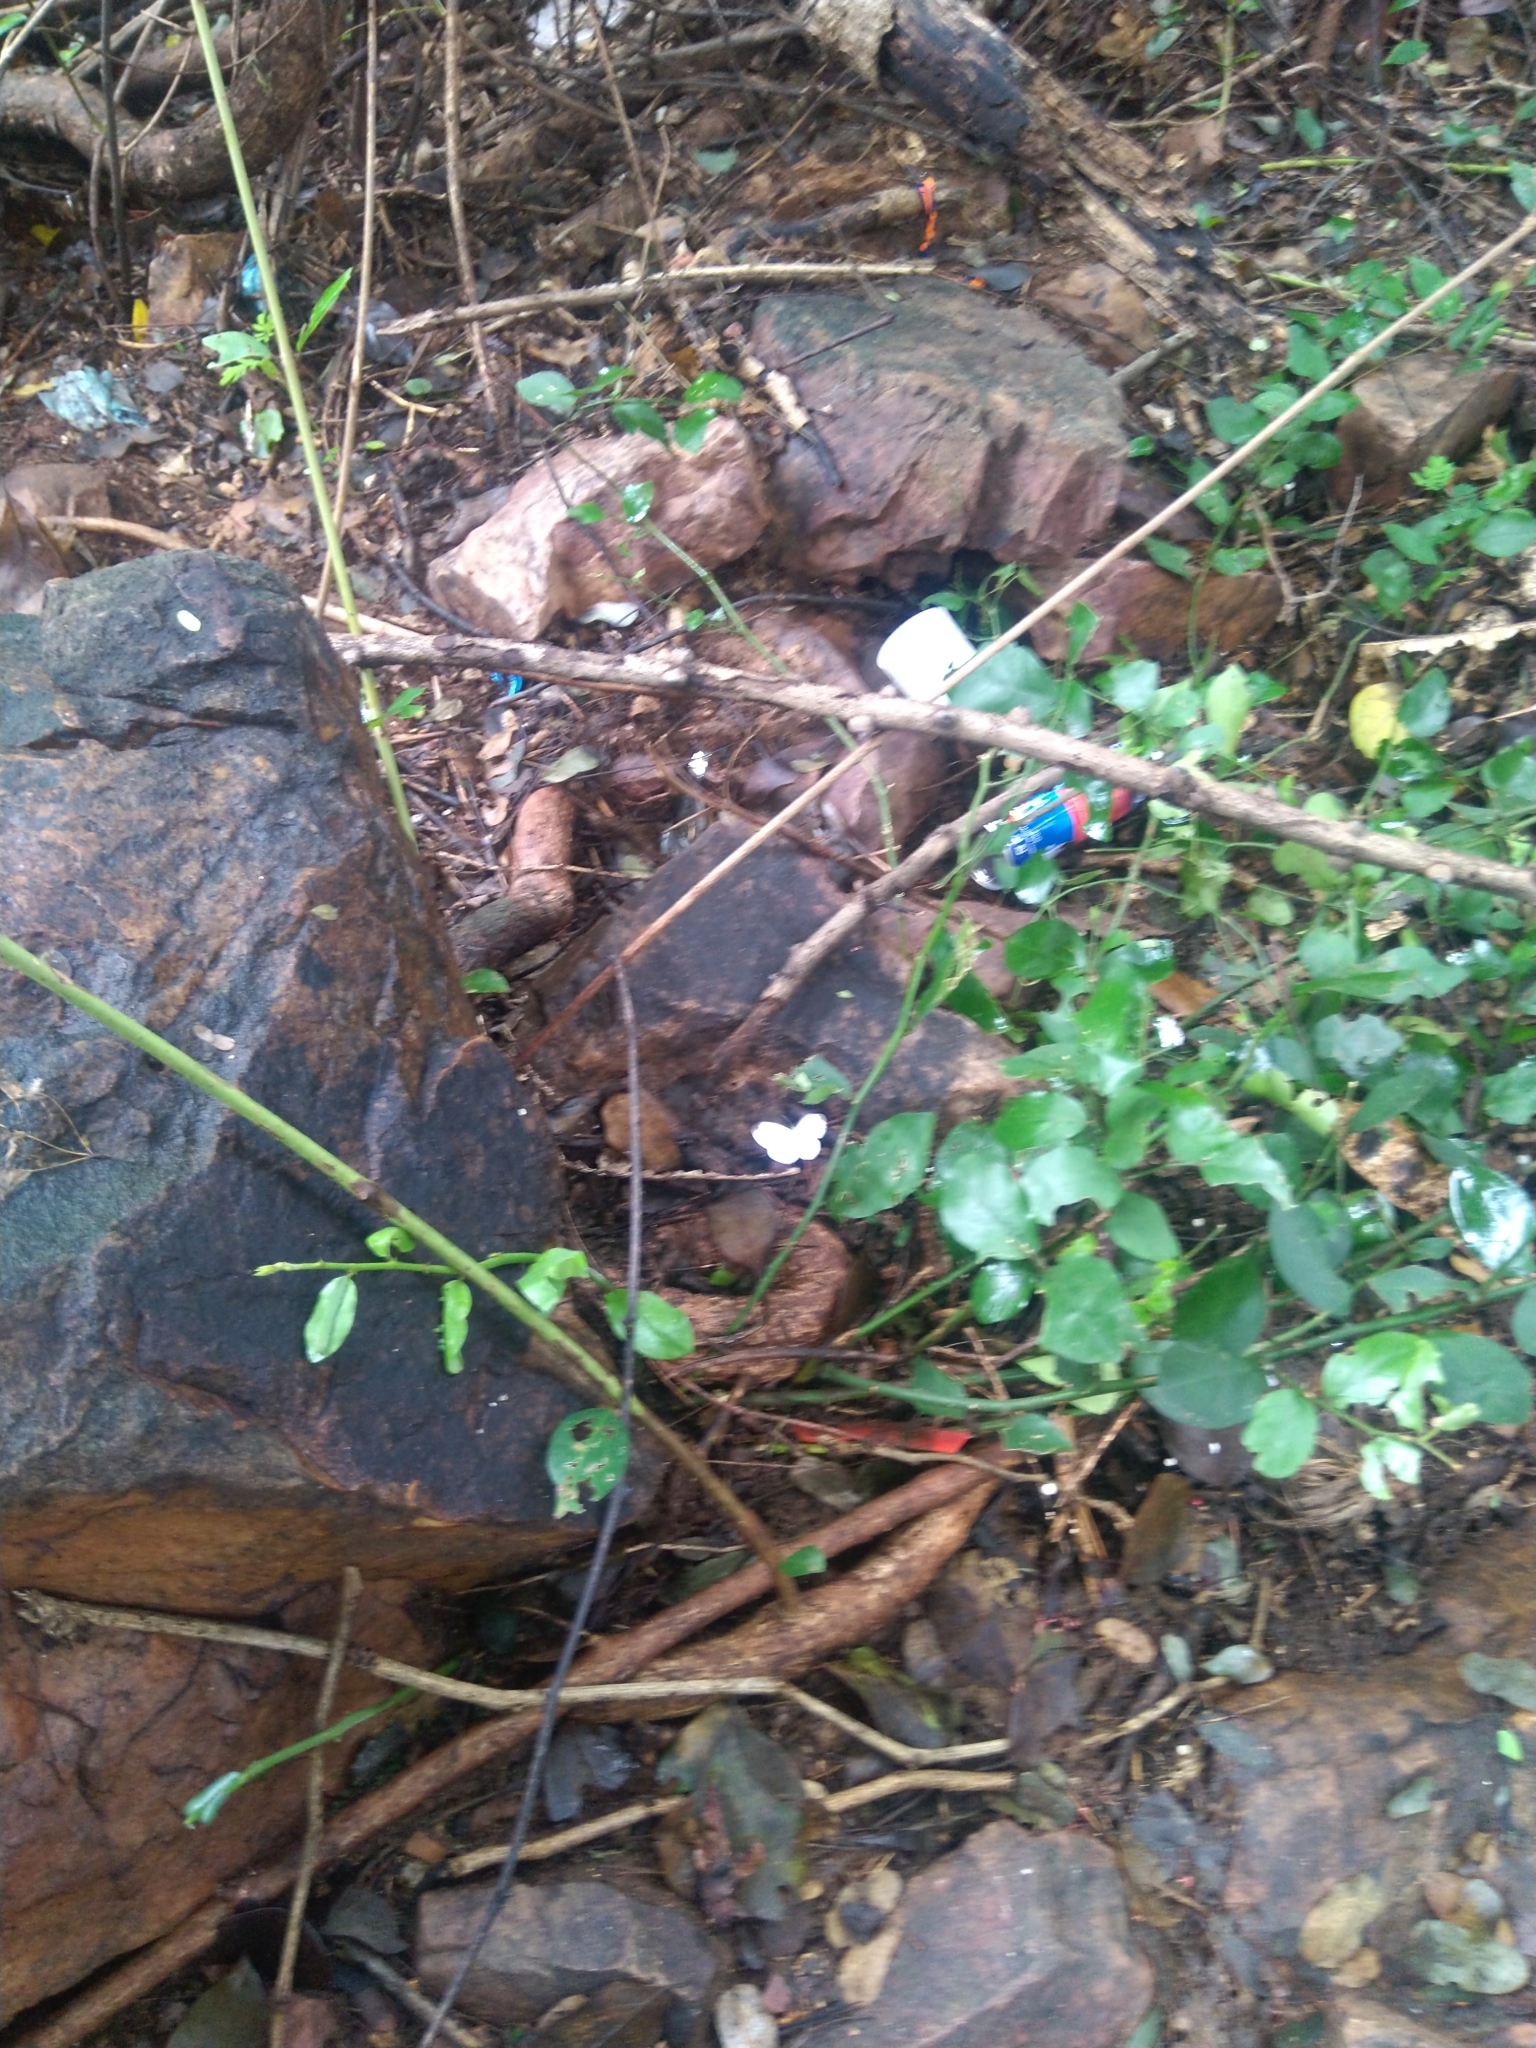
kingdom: Animalia
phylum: Arthropoda
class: Insecta
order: Lepidoptera
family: Pieridae
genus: Leptosia
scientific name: Leptosia nina
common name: Psyche
